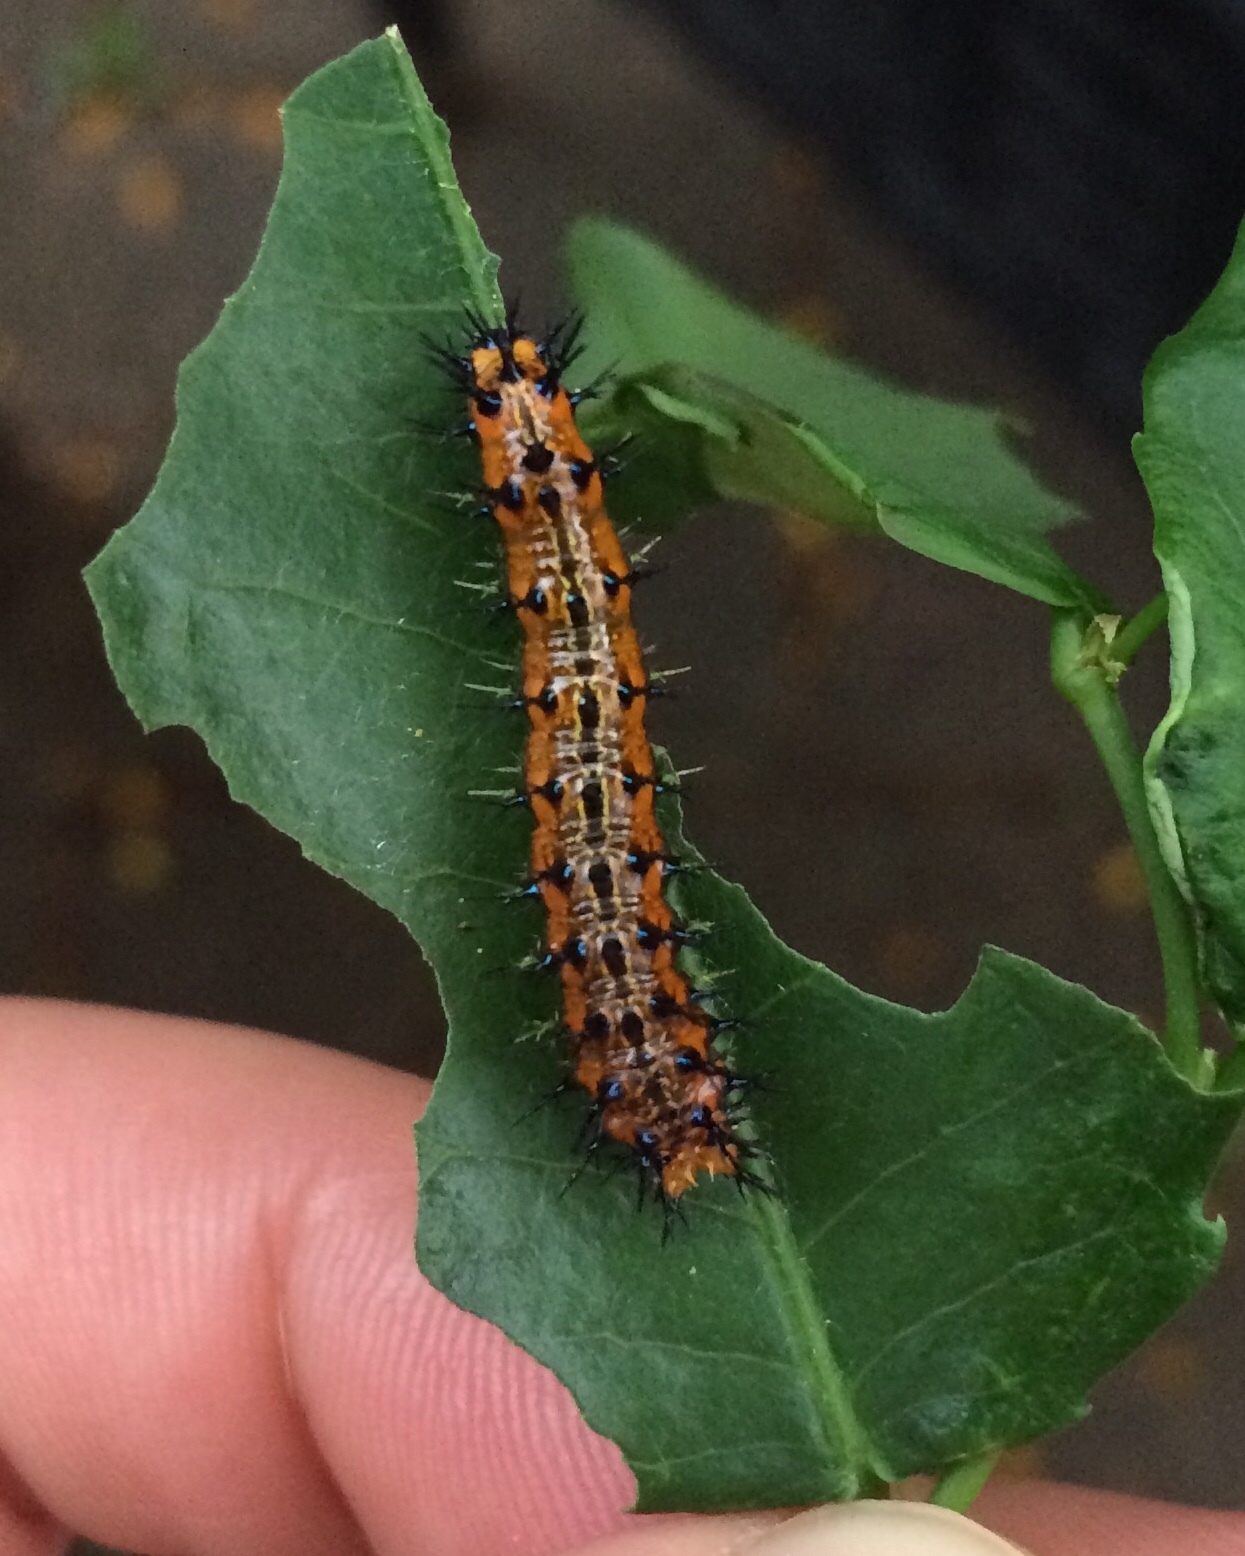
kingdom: Animalia
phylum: Arthropoda
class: Insecta
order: Lepidoptera
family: Nymphalidae
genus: Asterope
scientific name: Asterope boisduvali
